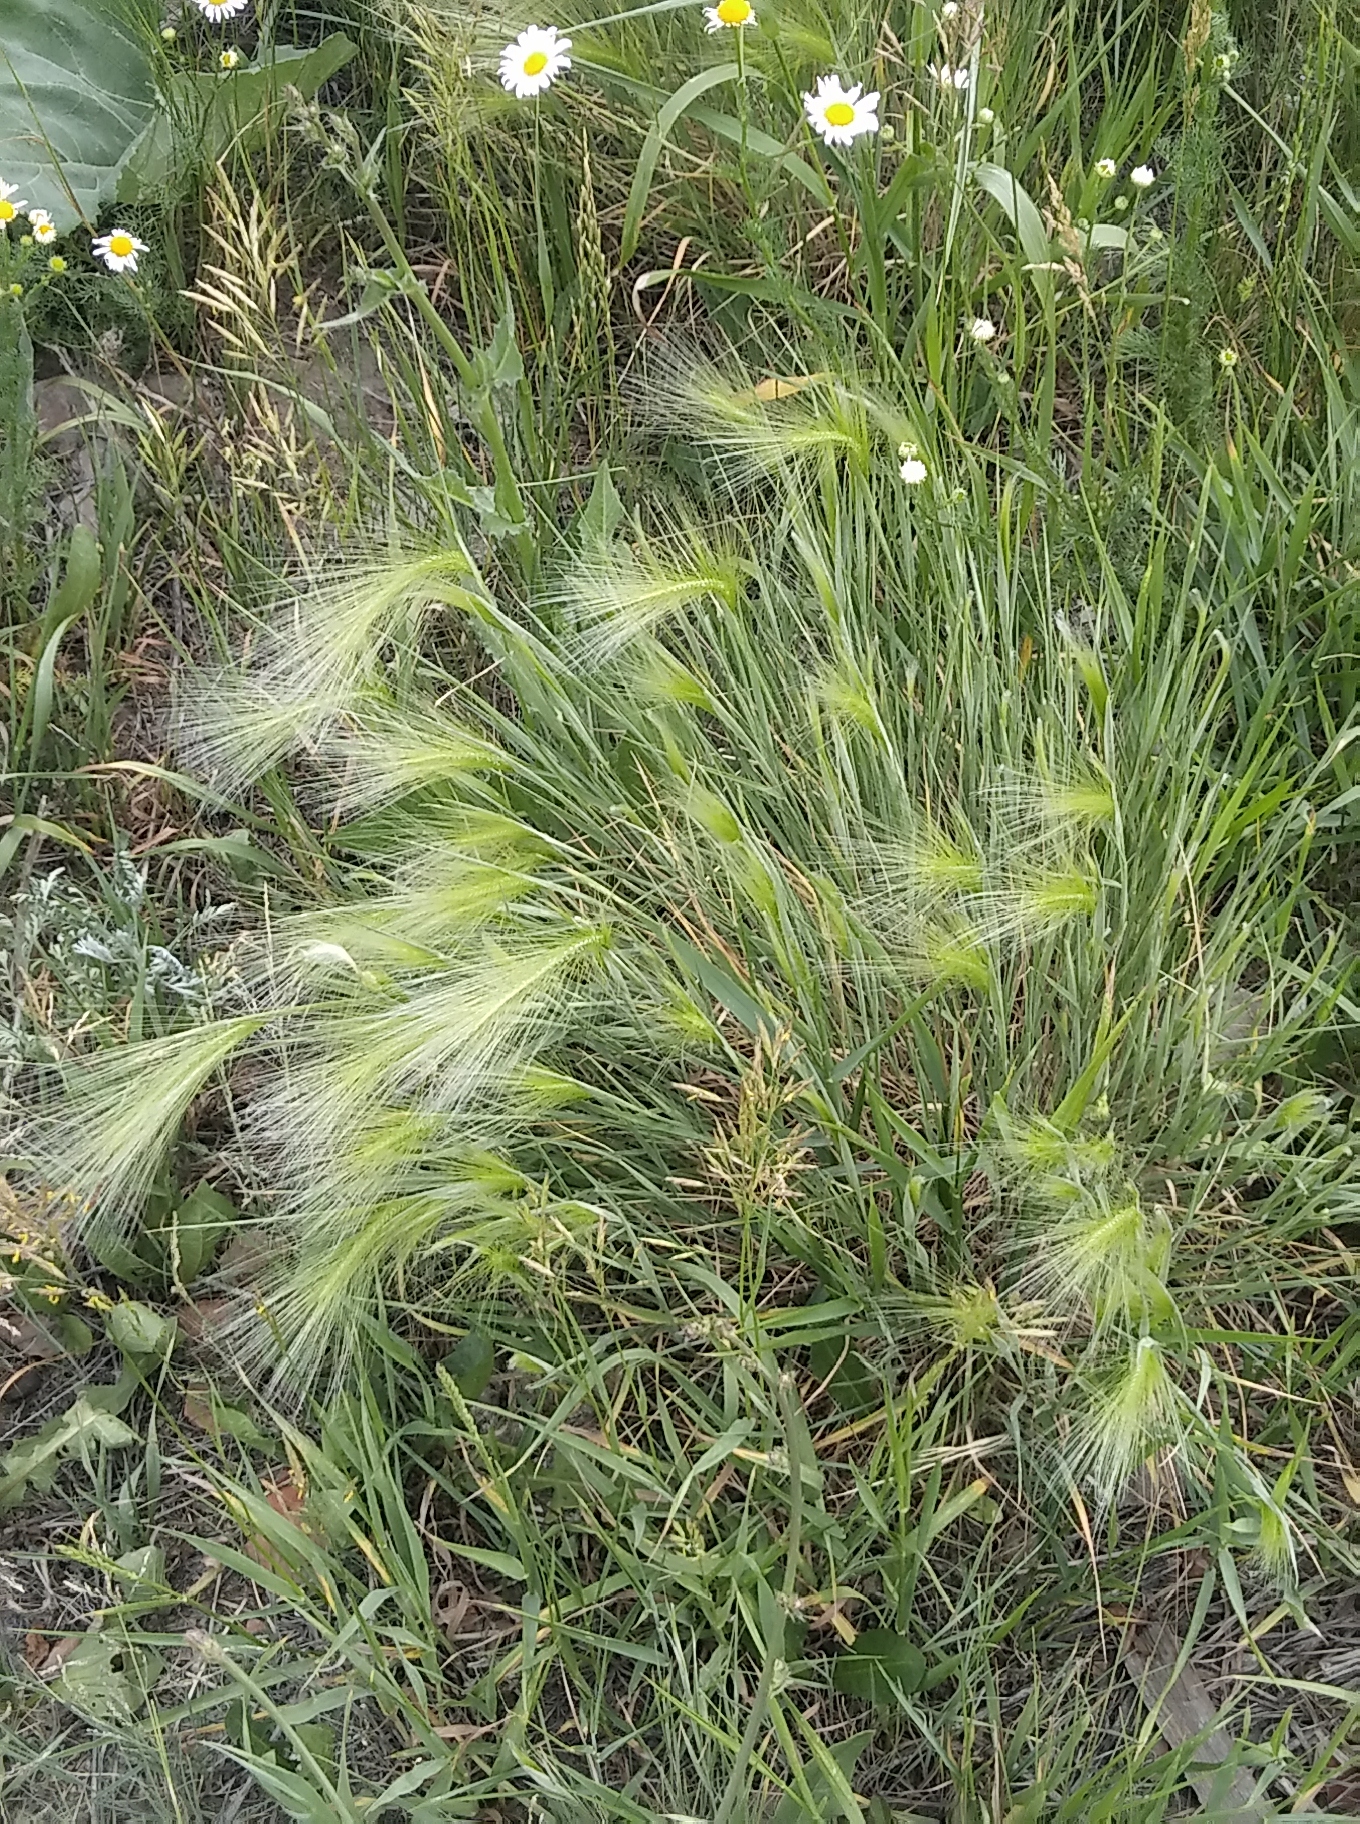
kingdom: Plantae
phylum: Tracheophyta
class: Liliopsida
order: Poales
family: Poaceae
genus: Hordeum
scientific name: Hordeum jubatum
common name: Foxtail barley
